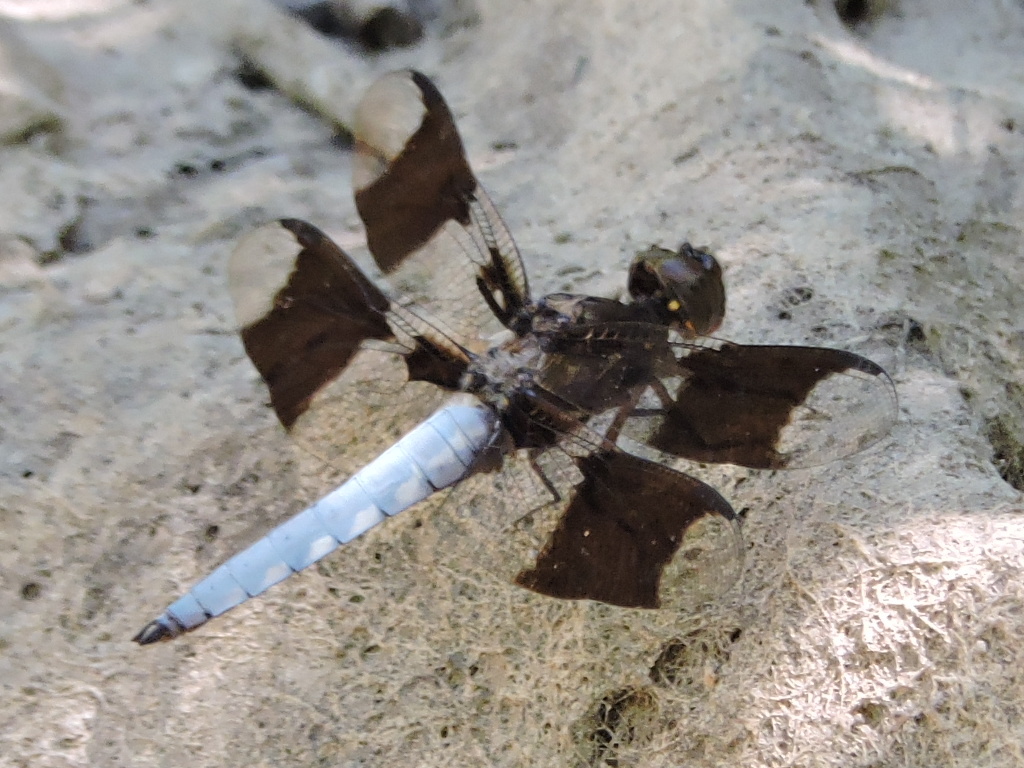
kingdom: Animalia
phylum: Arthropoda
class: Insecta
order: Odonata
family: Libellulidae
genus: Plathemis
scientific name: Plathemis lydia
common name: Common whitetail
